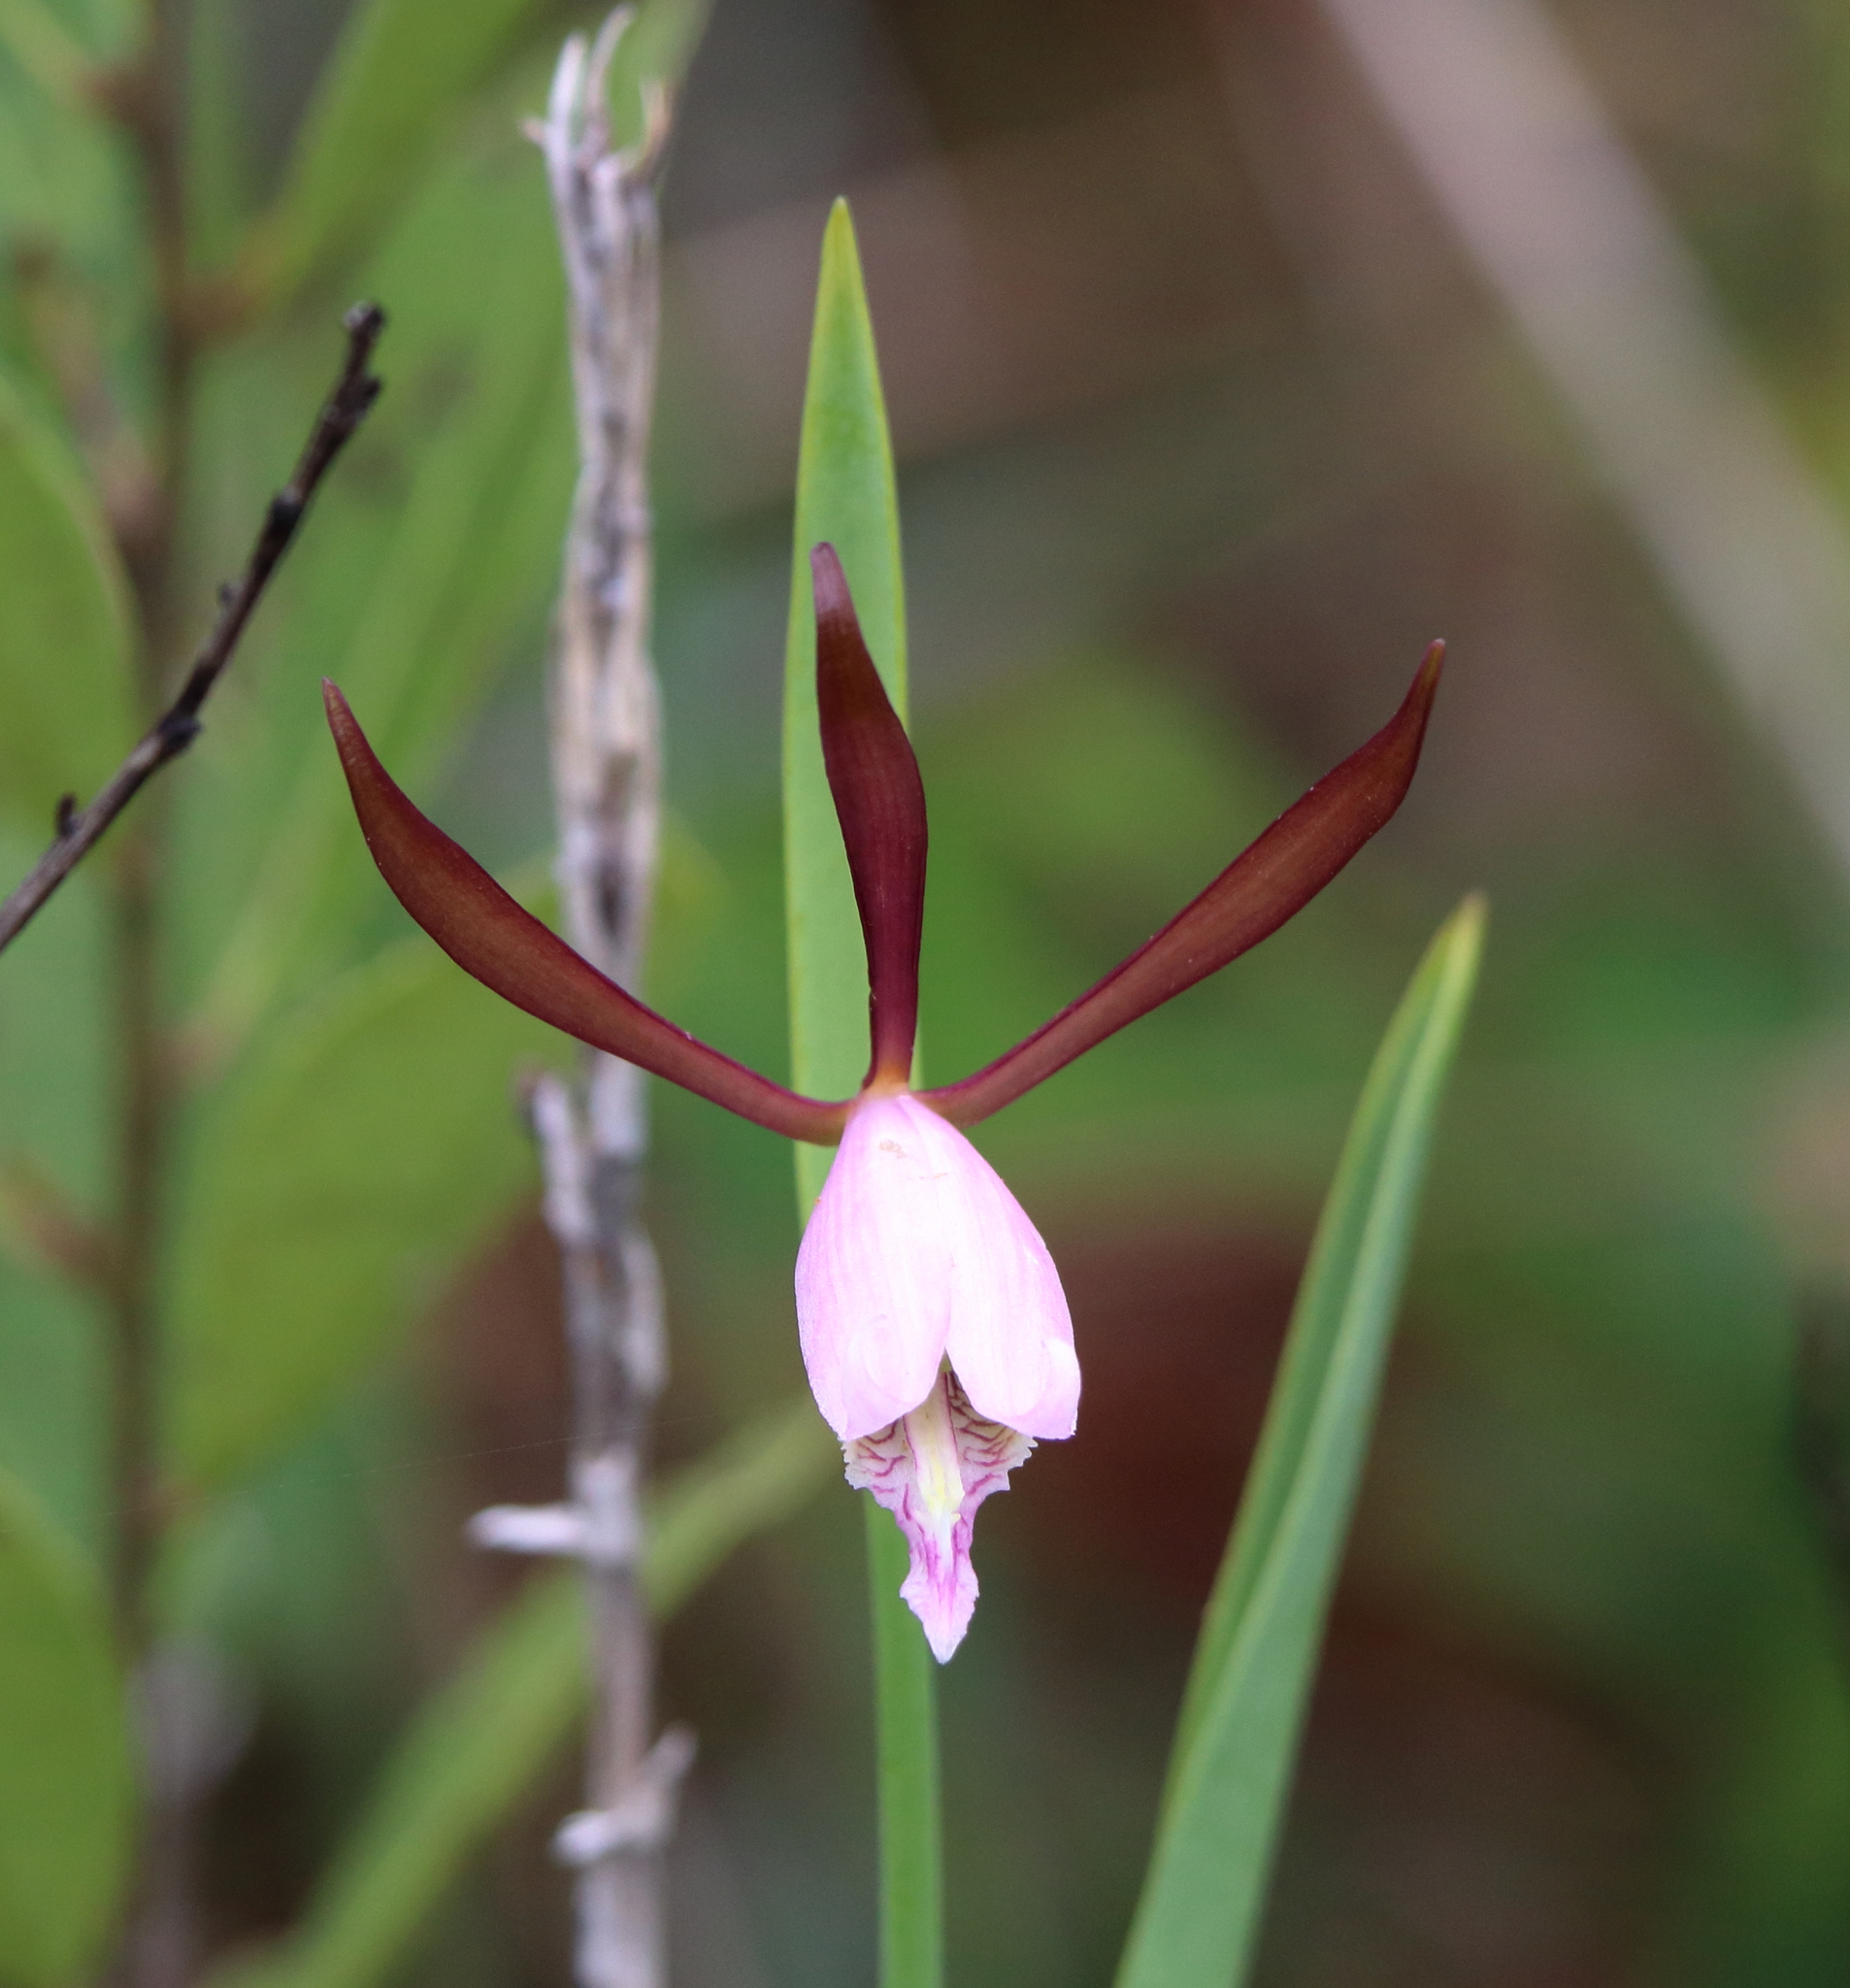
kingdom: Plantae
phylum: Tracheophyta
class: Liliopsida
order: Asparagales
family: Orchidaceae
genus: Cleistesiopsis
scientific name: Cleistesiopsis oricamporum
